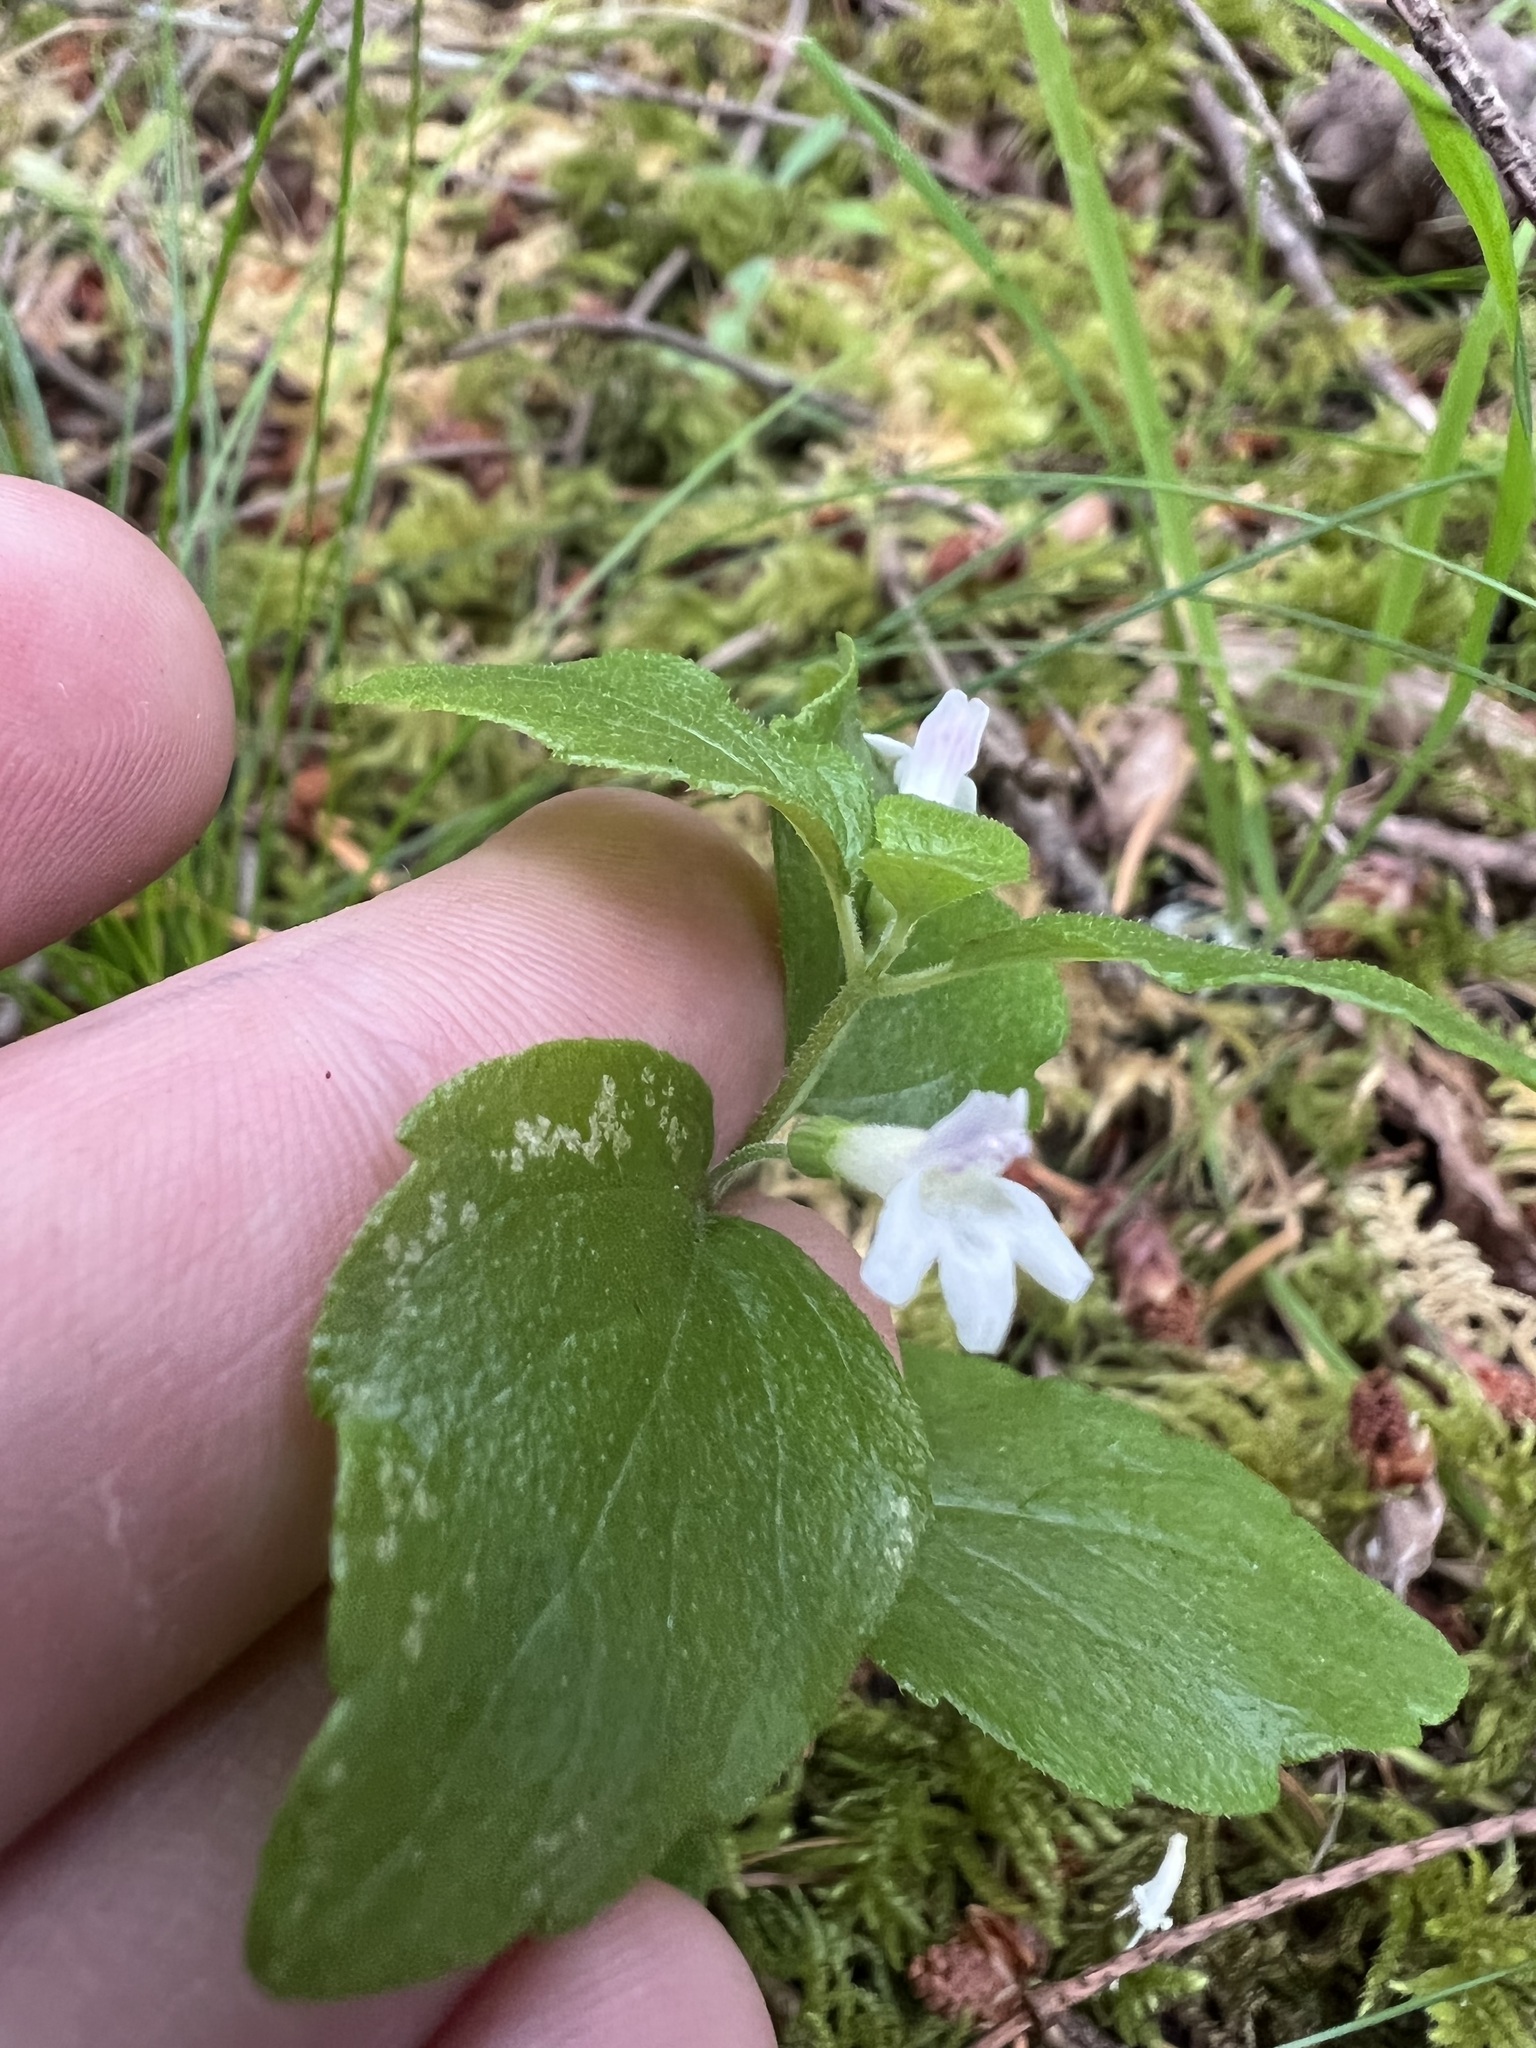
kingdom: Plantae
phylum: Tracheophyta
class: Magnoliopsida
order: Lamiales
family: Lamiaceae
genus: Micromeria
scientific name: Micromeria douglasii
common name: Yerba buena
